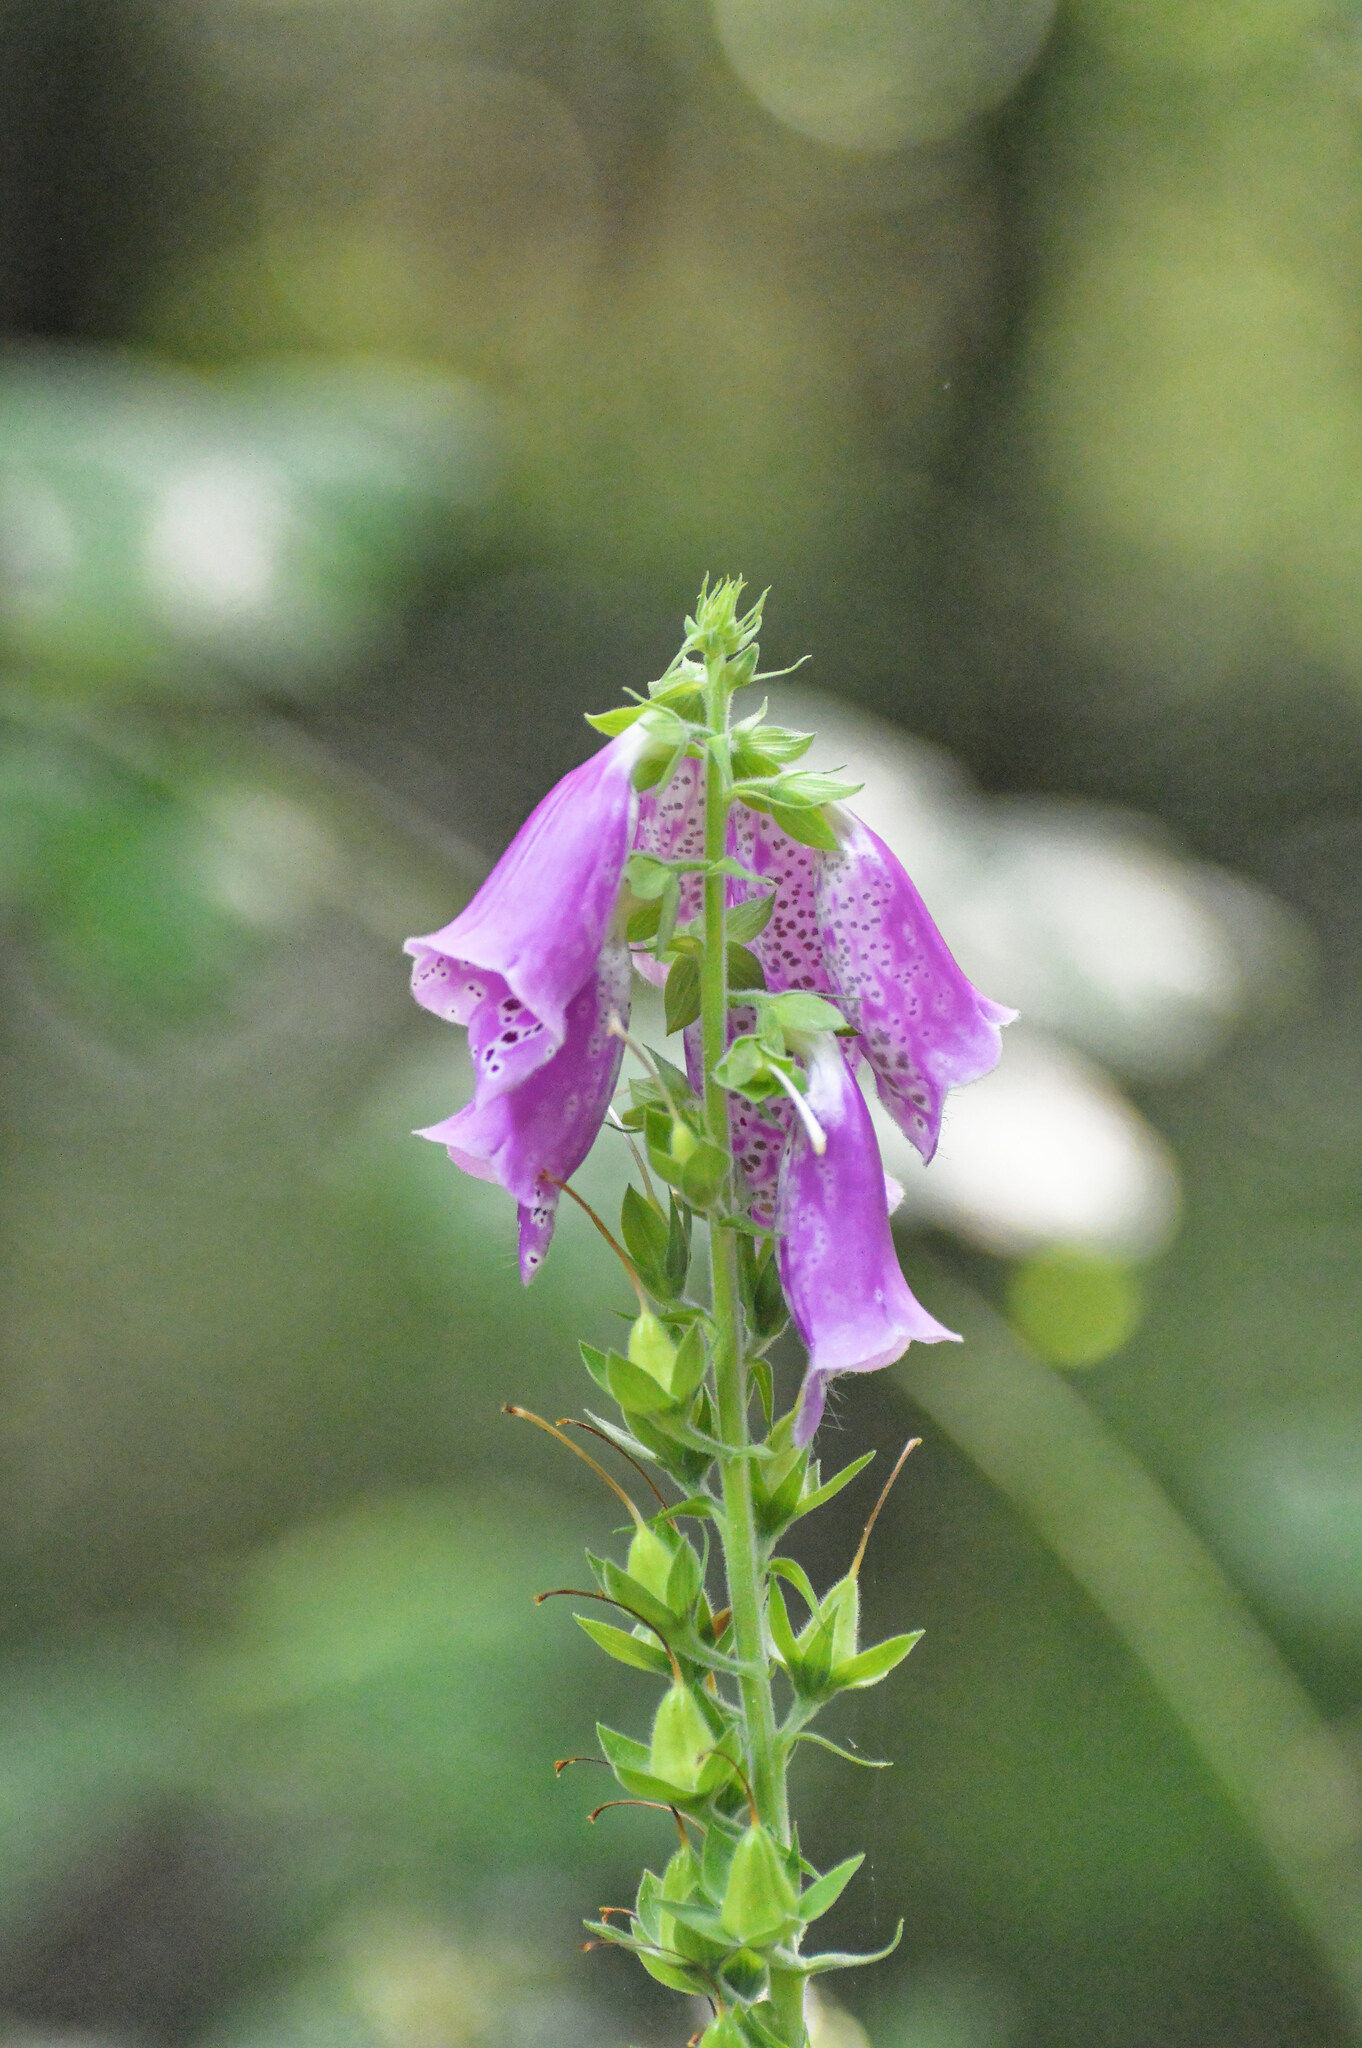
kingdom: Plantae
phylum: Tracheophyta
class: Magnoliopsida
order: Lamiales
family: Plantaginaceae
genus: Digitalis
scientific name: Digitalis purpurea
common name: Foxglove
